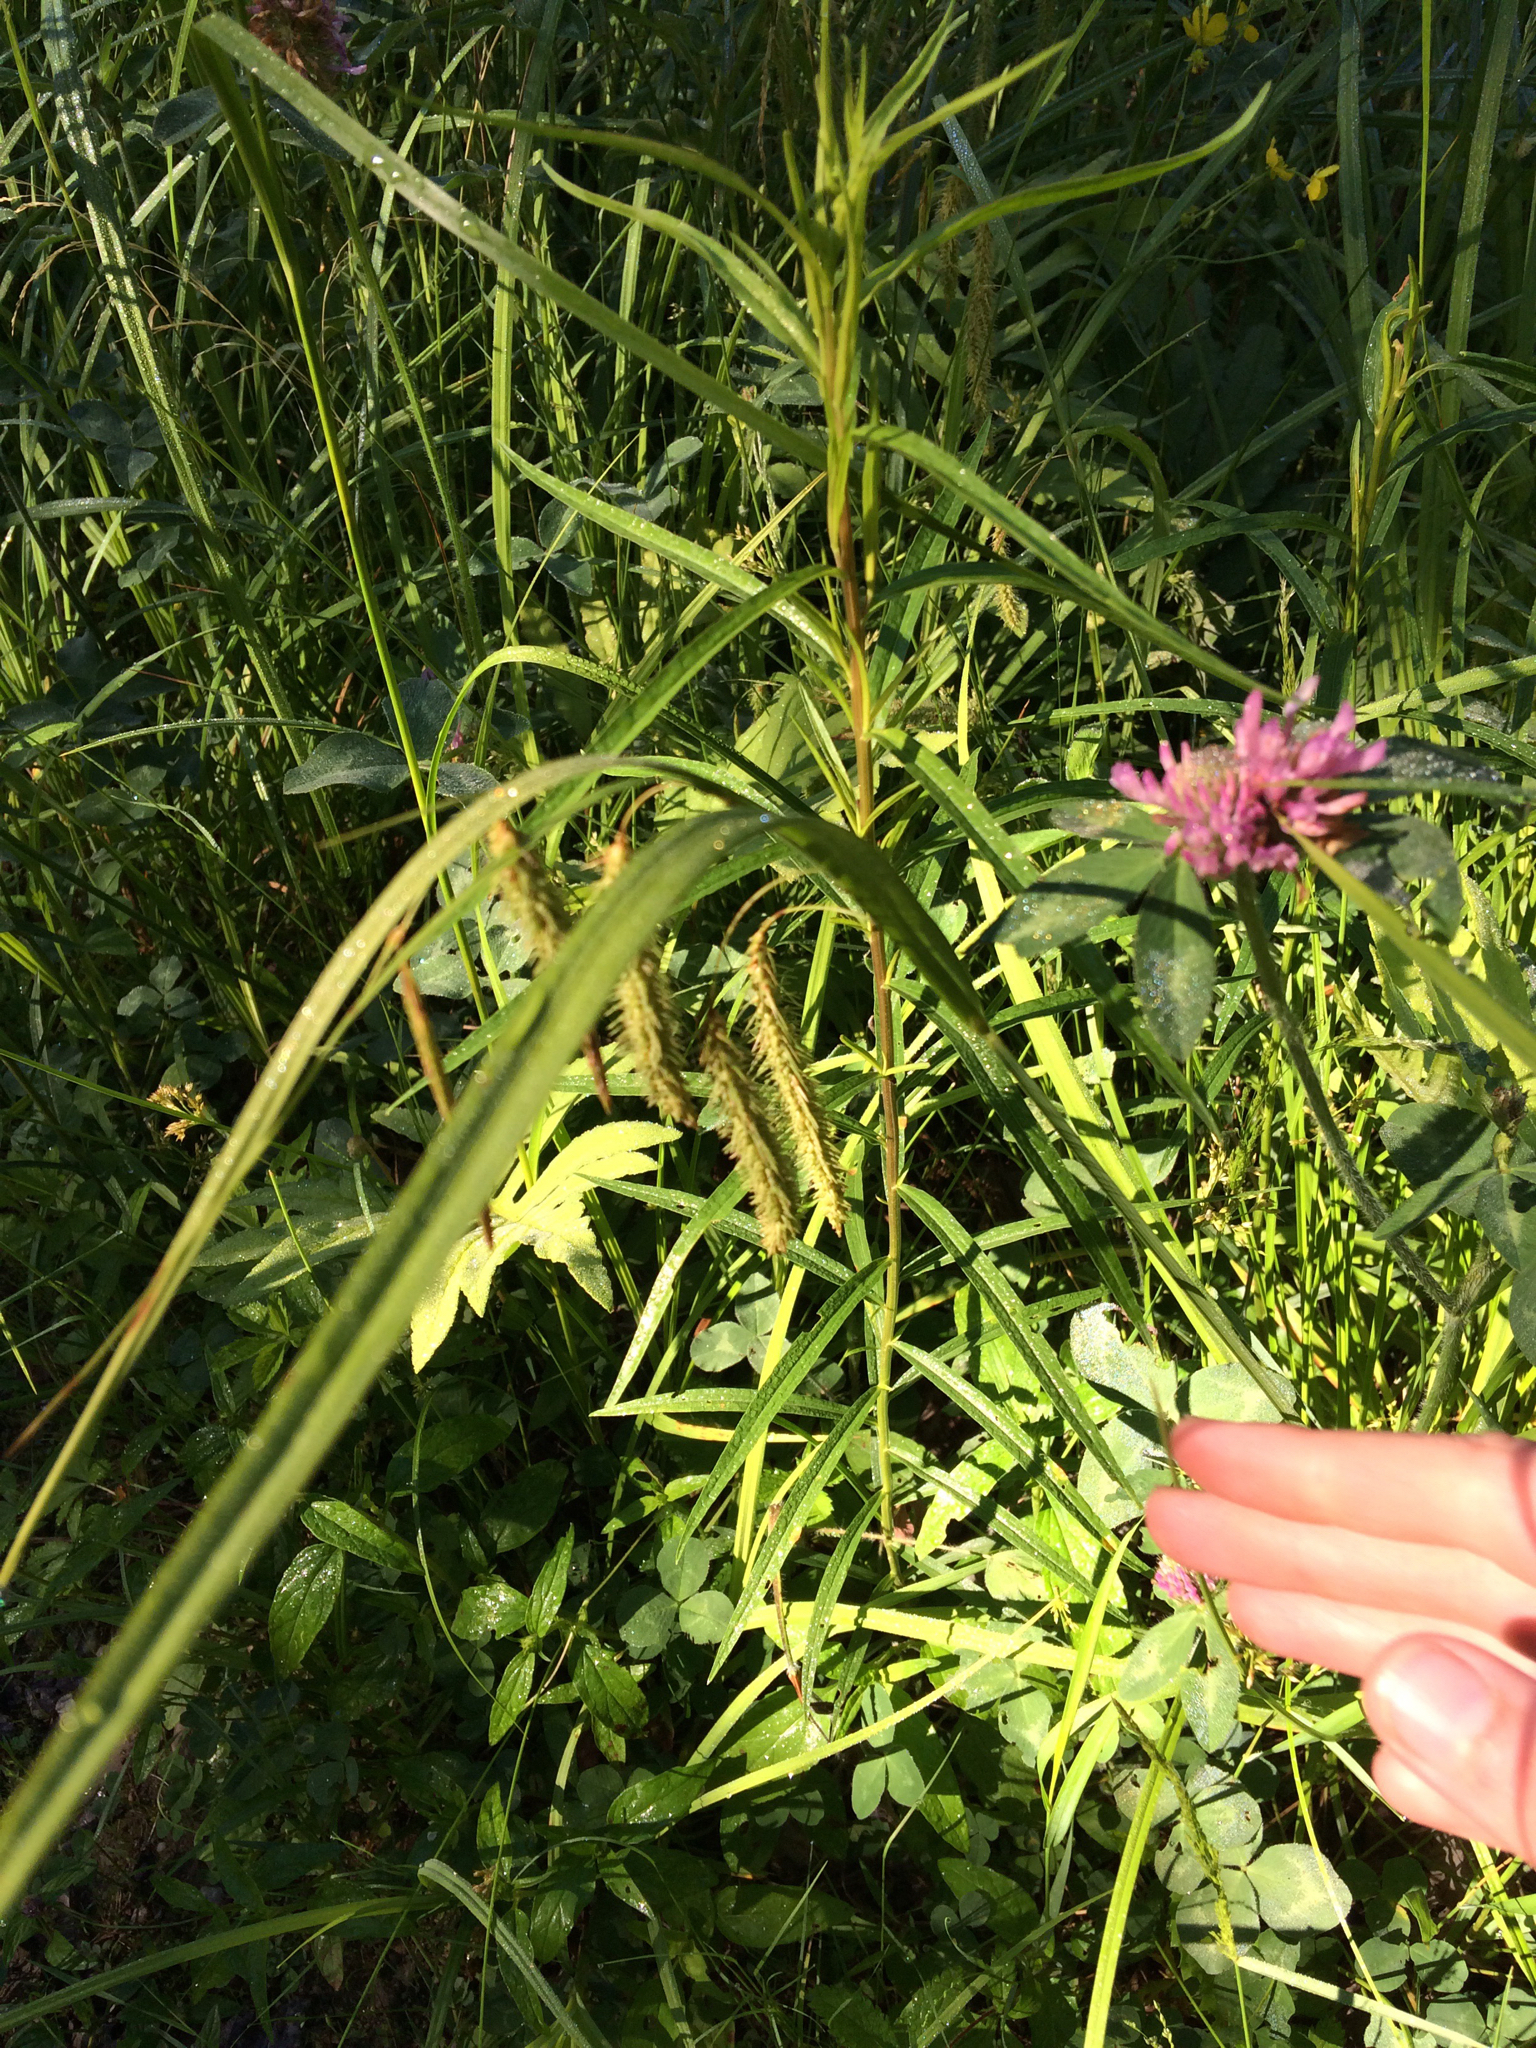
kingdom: Plantae
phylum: Tracheophyta
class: Magnoliopsida
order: Fabales
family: Fabaceae
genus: Trifolium
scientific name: Trifolium pratense
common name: Red clover
